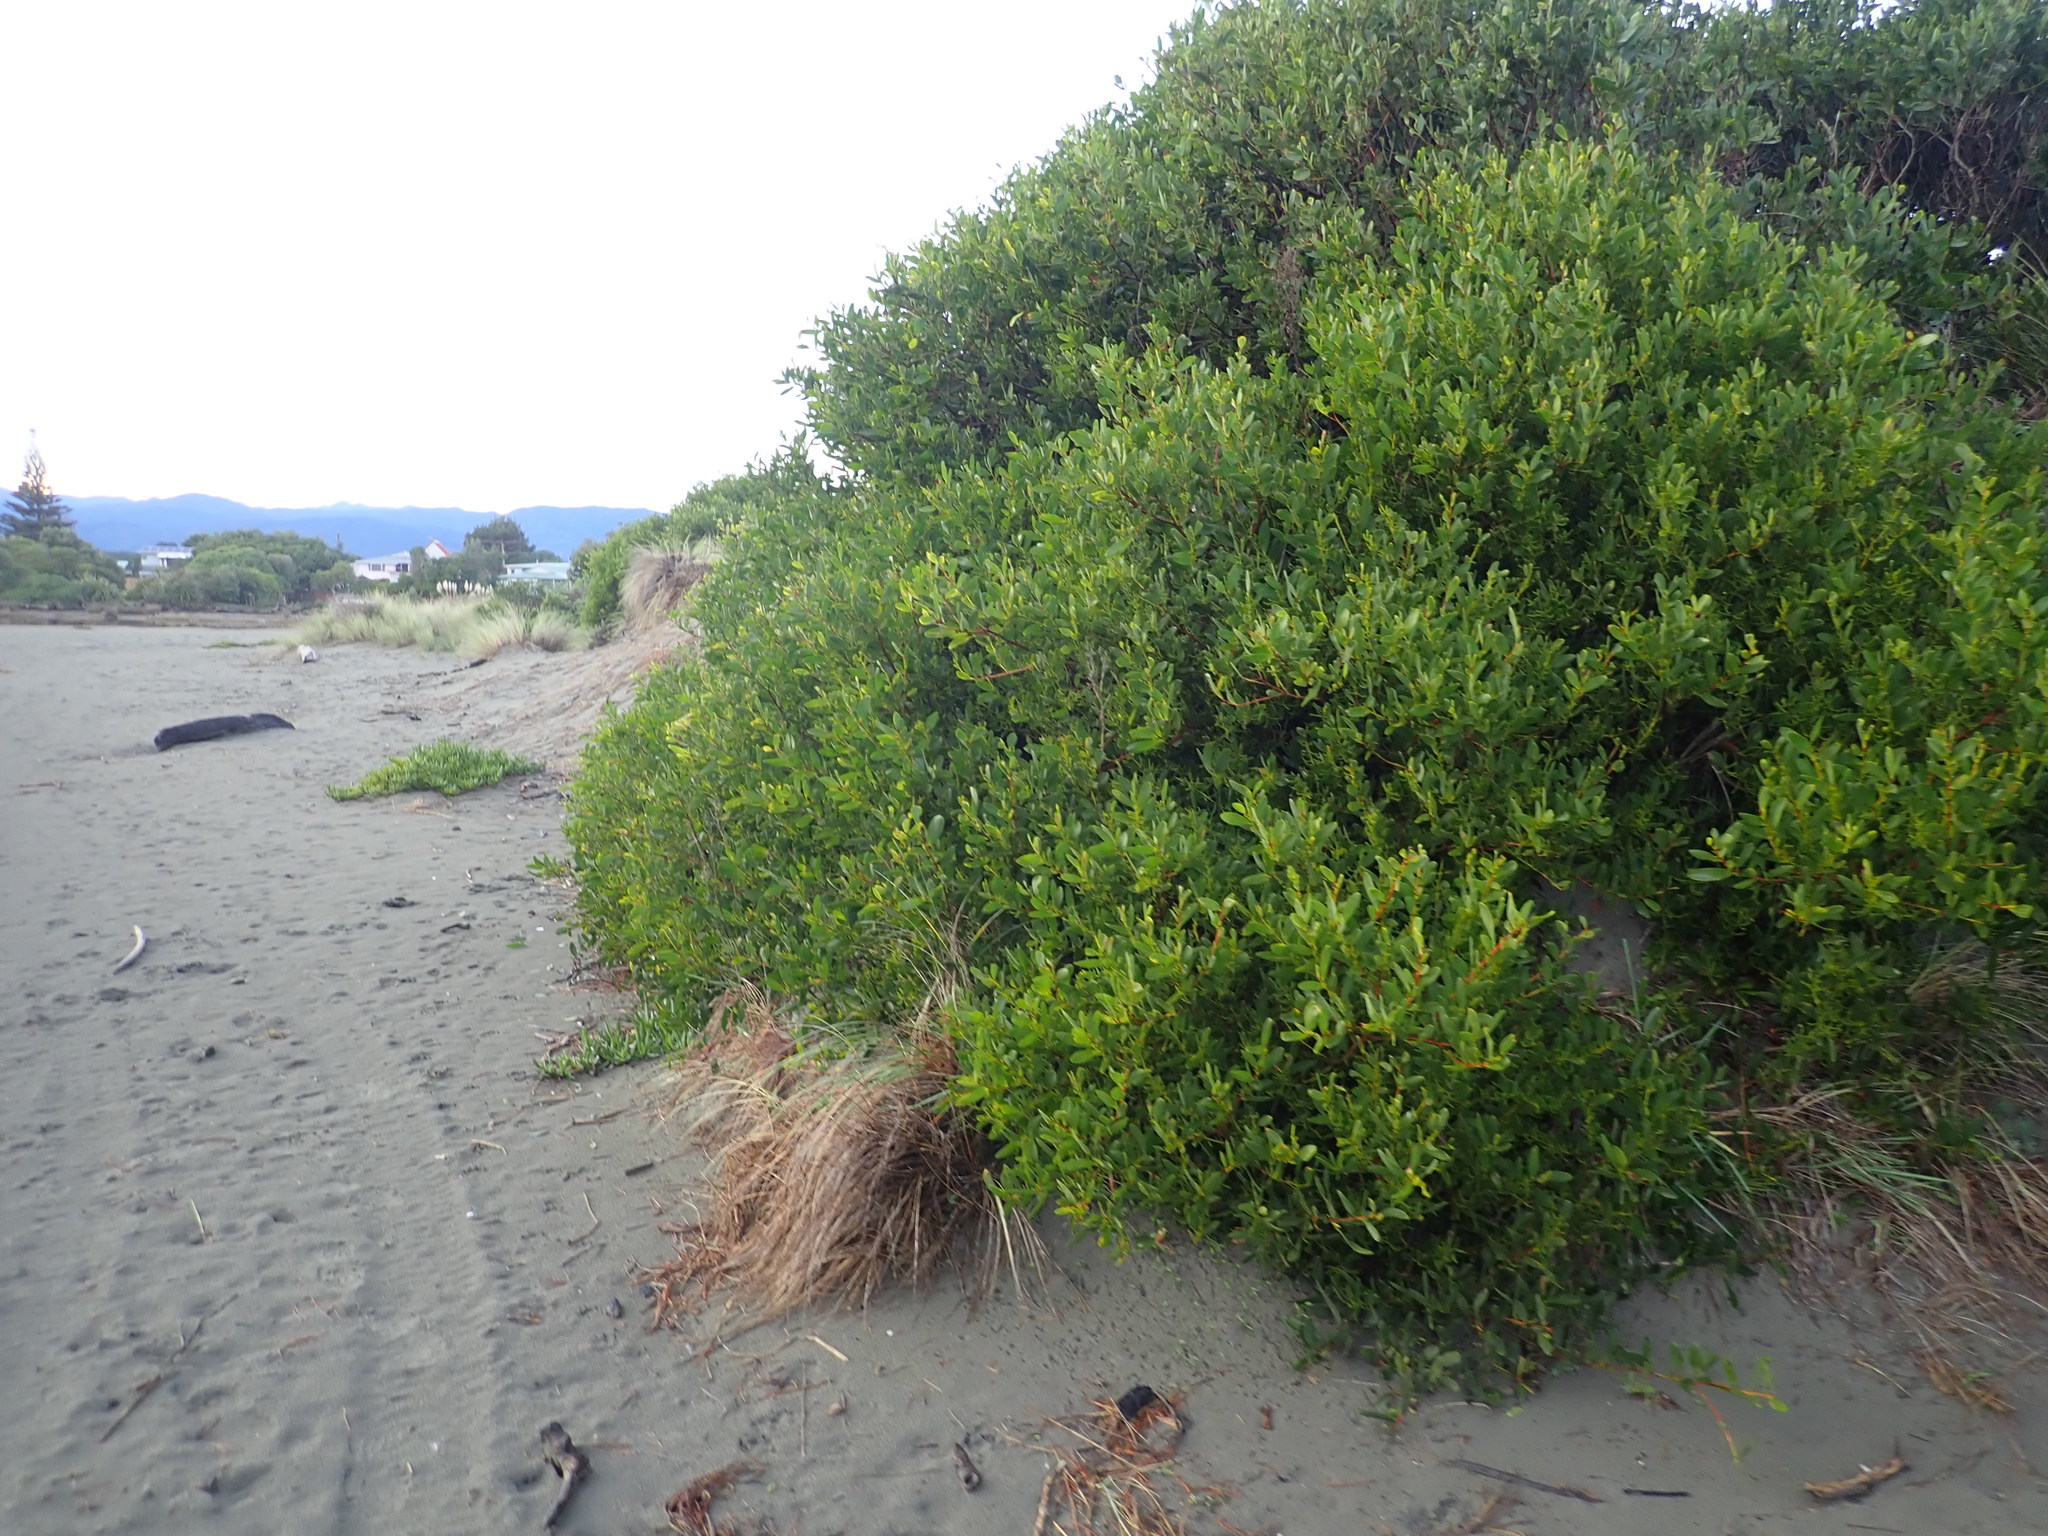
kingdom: Plantae
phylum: Tracheophyta
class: Magnoliopsida
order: Fabales
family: Fabaceae
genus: Acacia
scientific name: Acacia longifolia
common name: Sydney golden wattle
